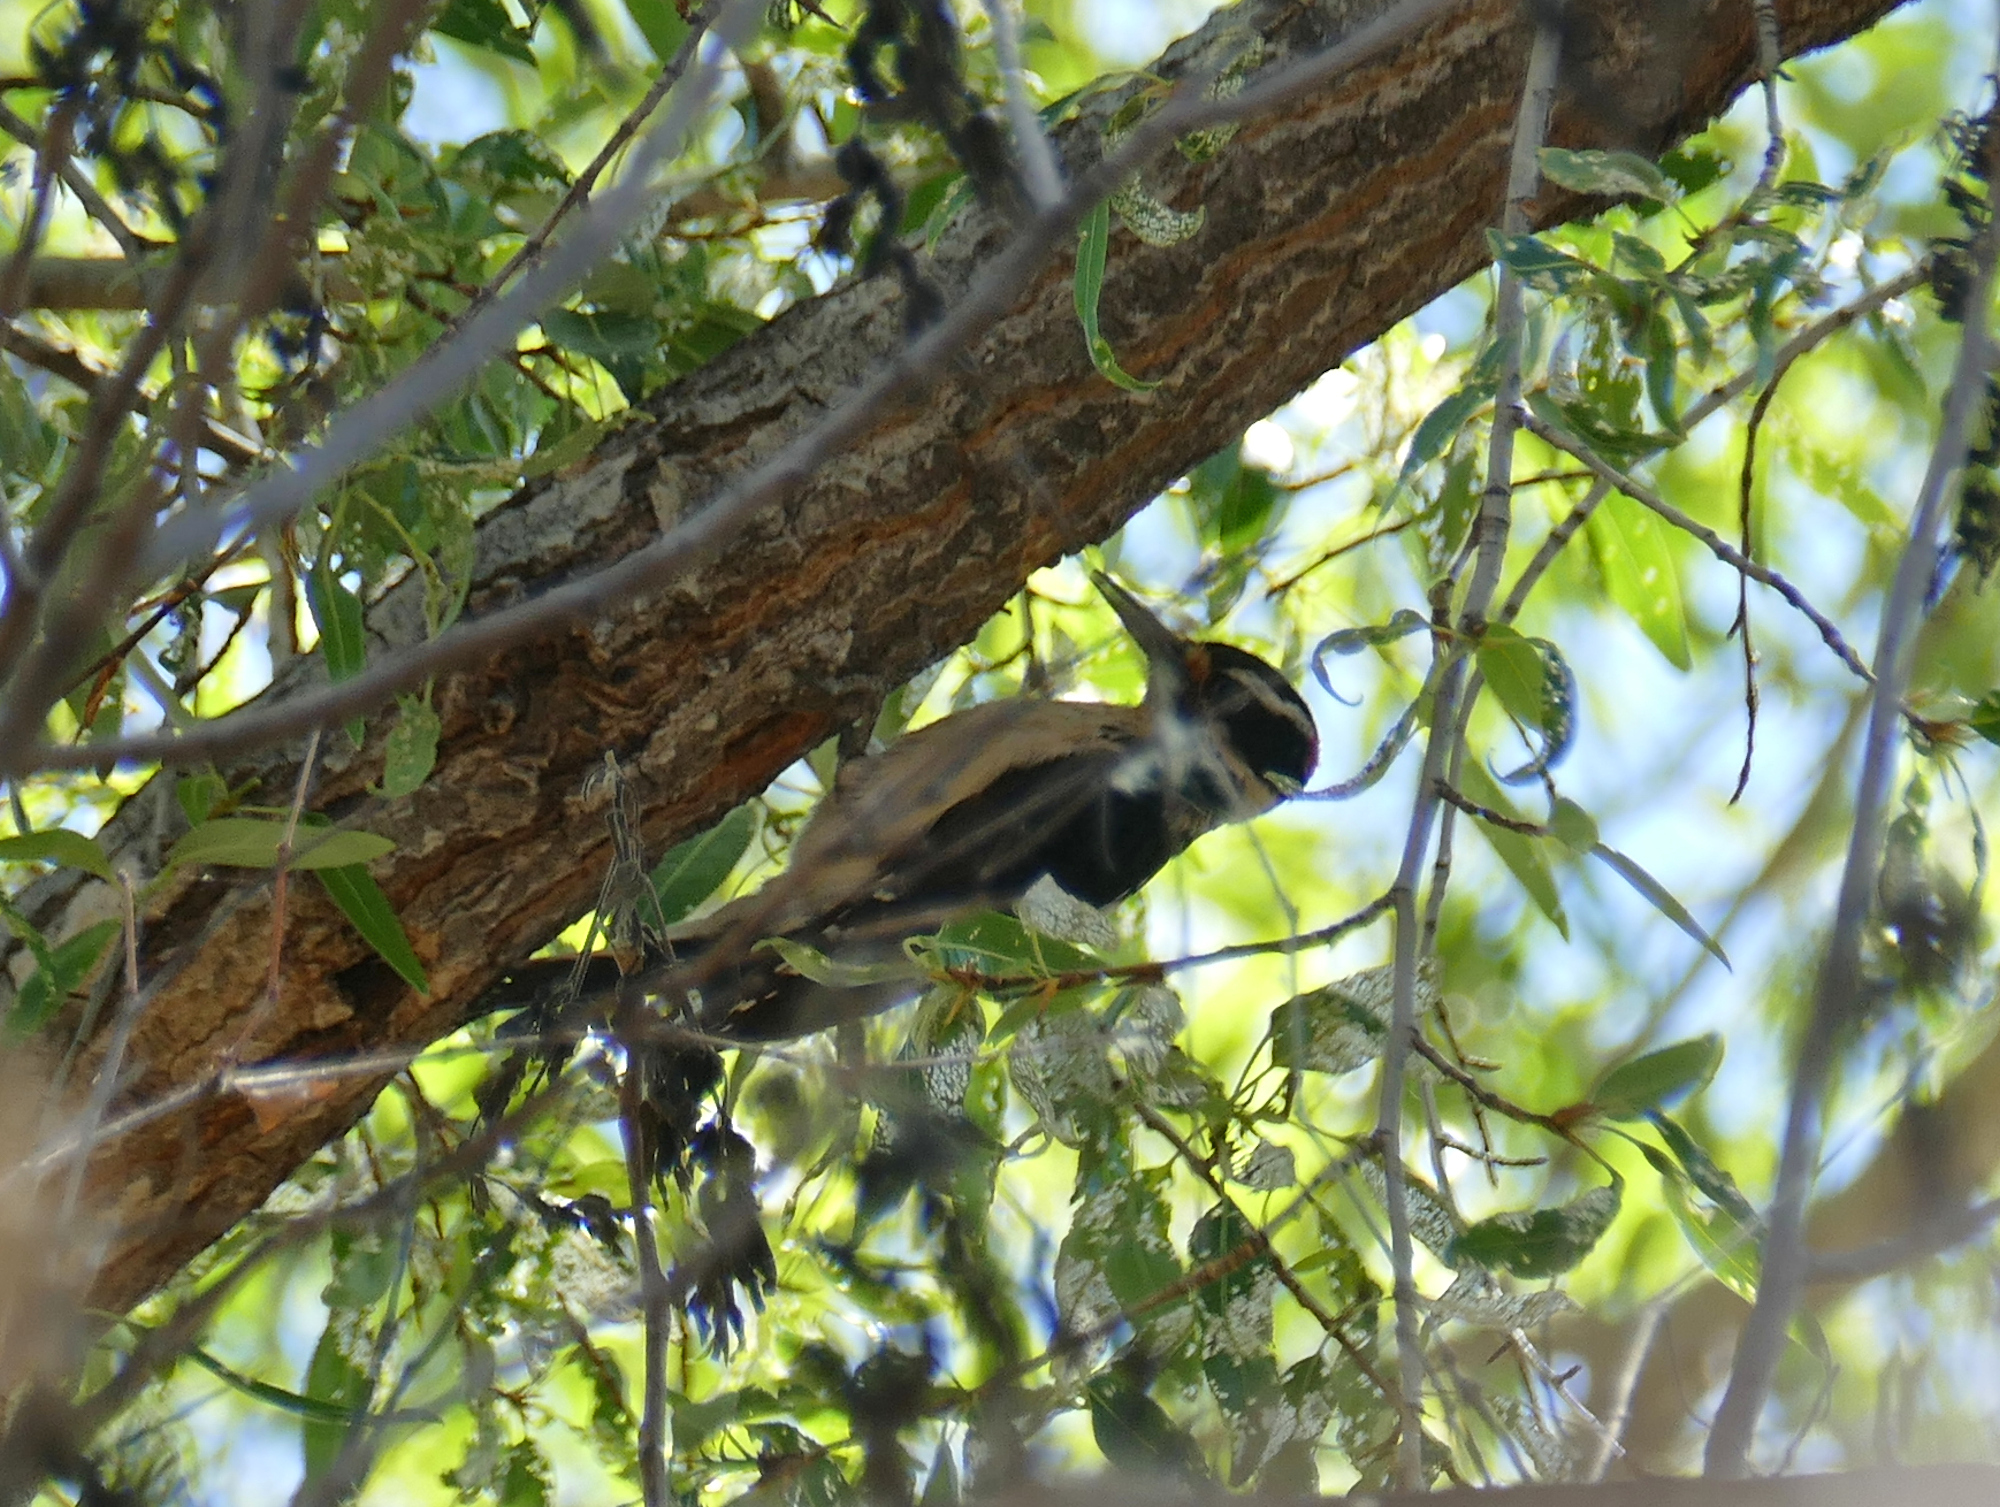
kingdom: Animalia
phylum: Chordata
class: Aves
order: Piciformes
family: Picidae
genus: Leuconotopicus
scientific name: Leuconotopicus villosus
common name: Hairy woodpecker
